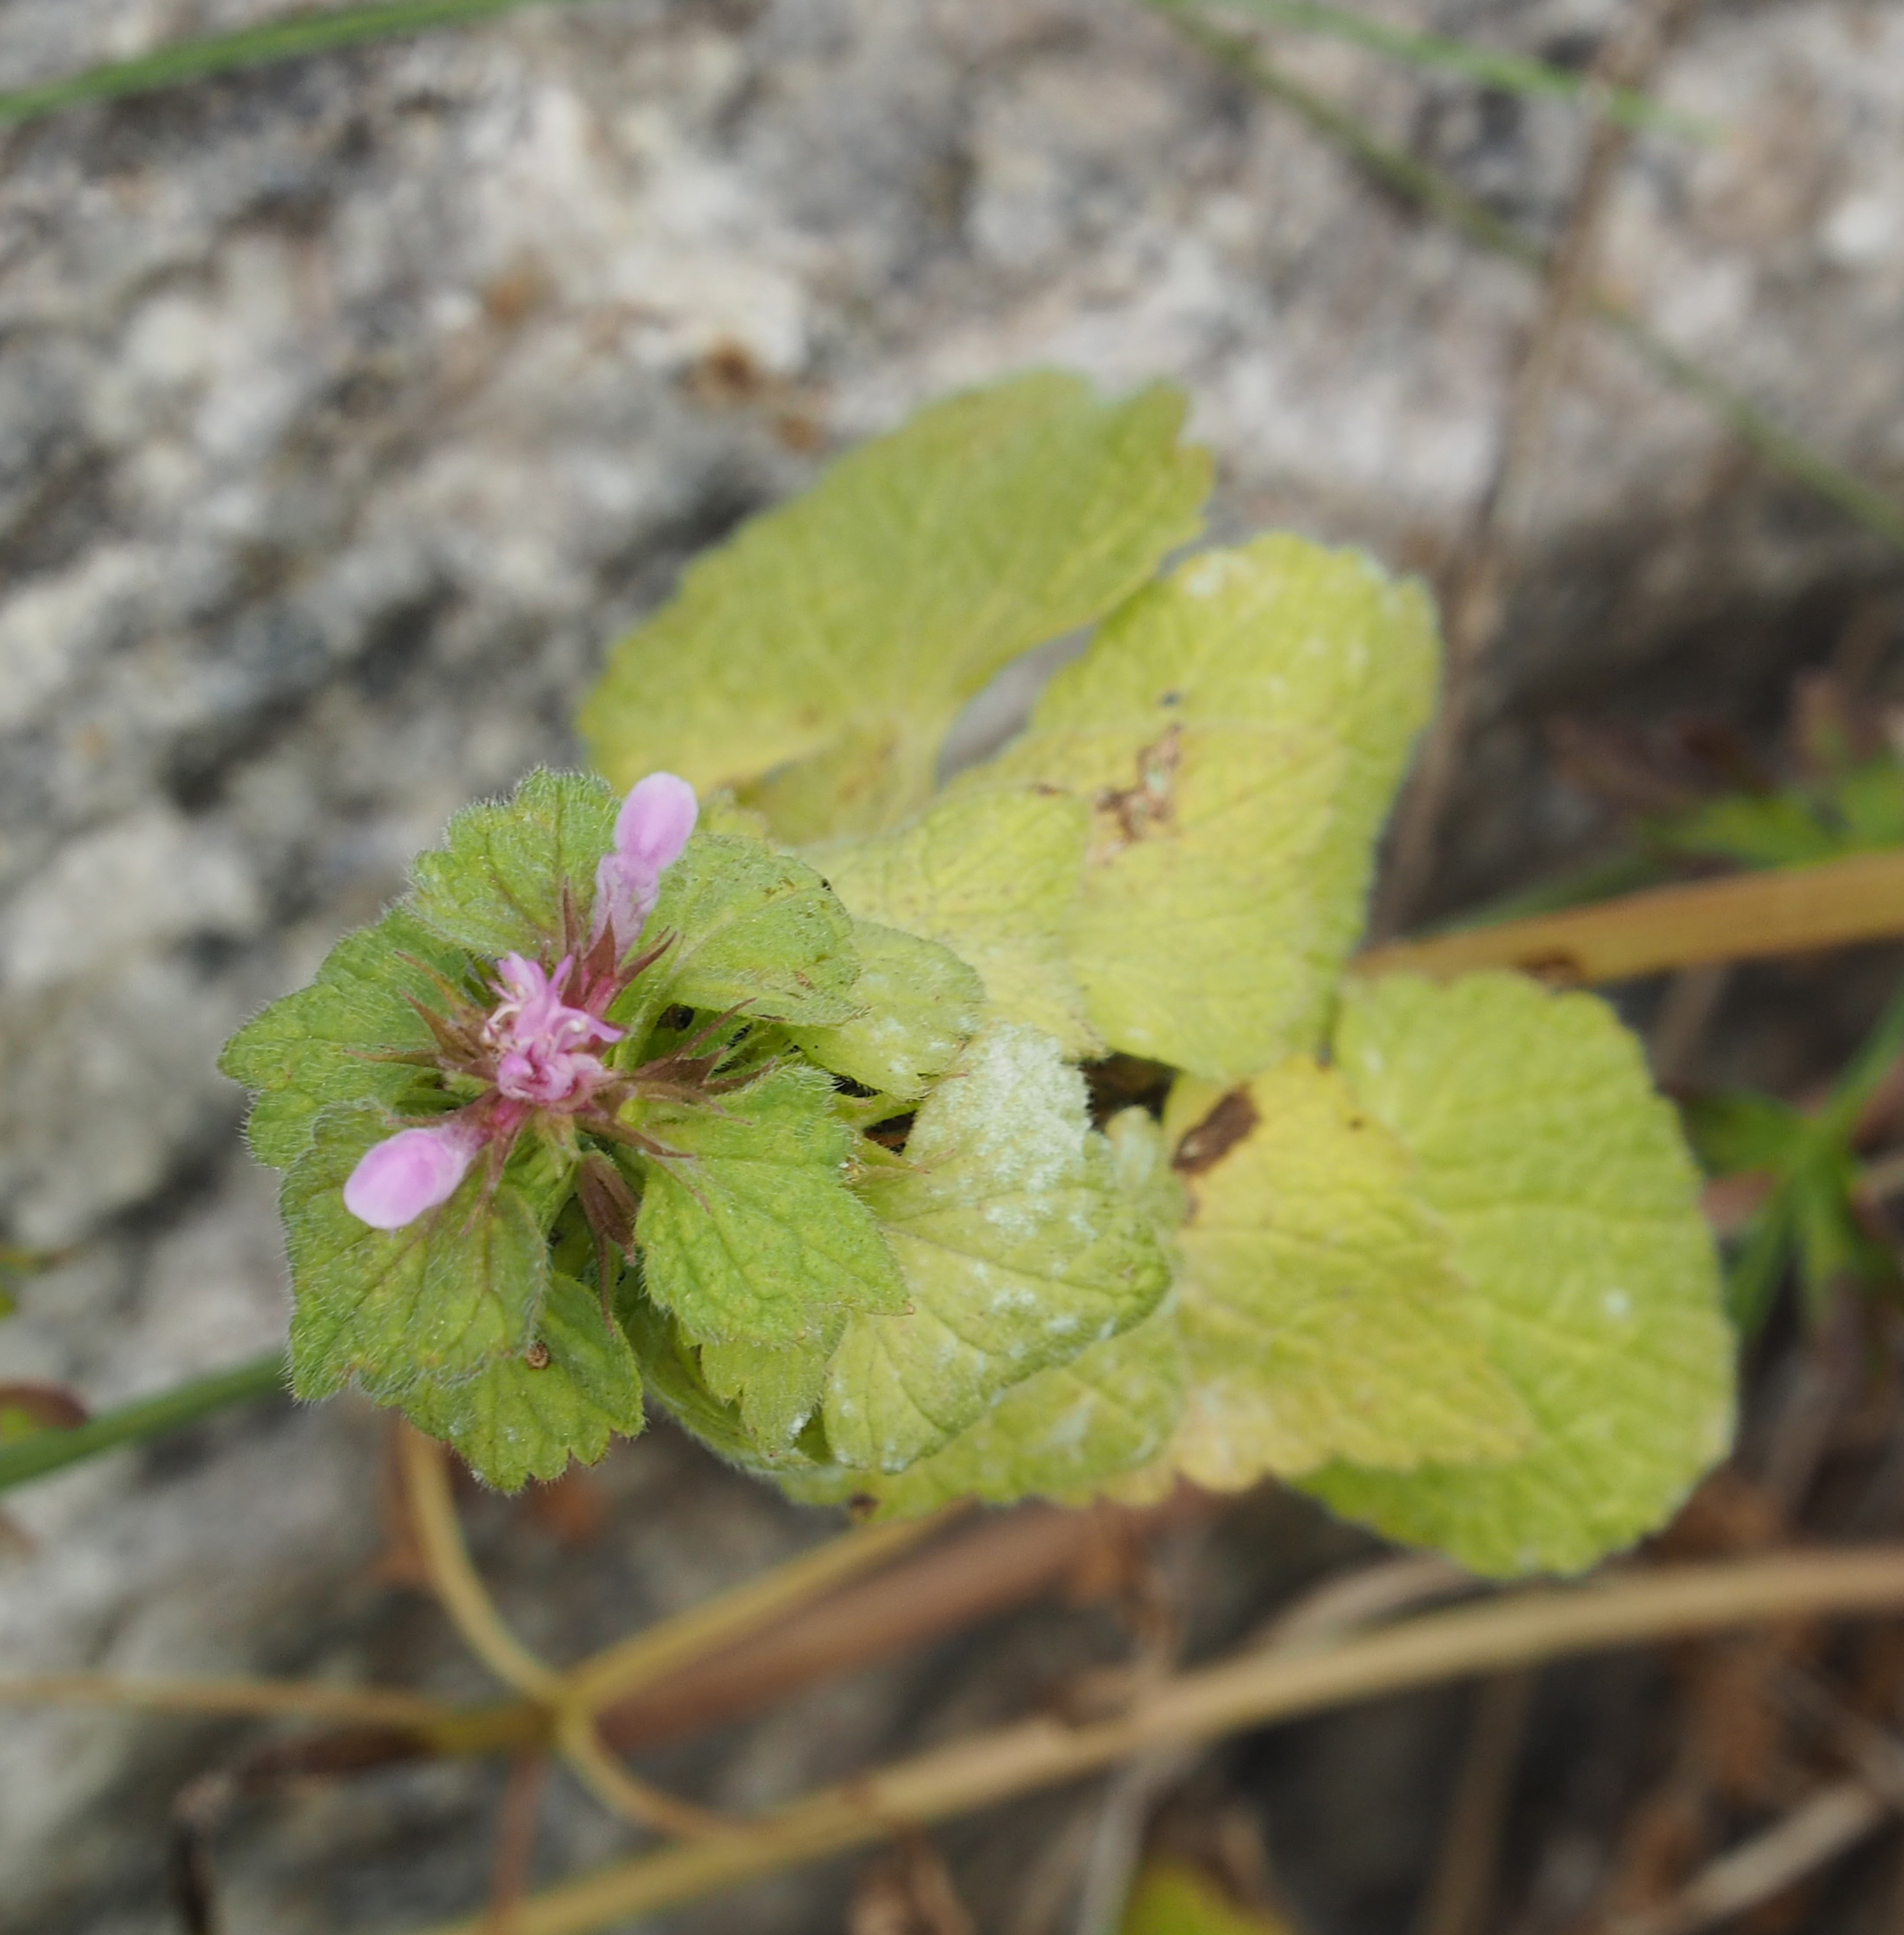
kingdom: Plantae
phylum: Tracheophyta
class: Magnoliopsida
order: Lamiales
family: Lamiaceae
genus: Lamium
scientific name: Lamium purpureum
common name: Red dead-nettle
